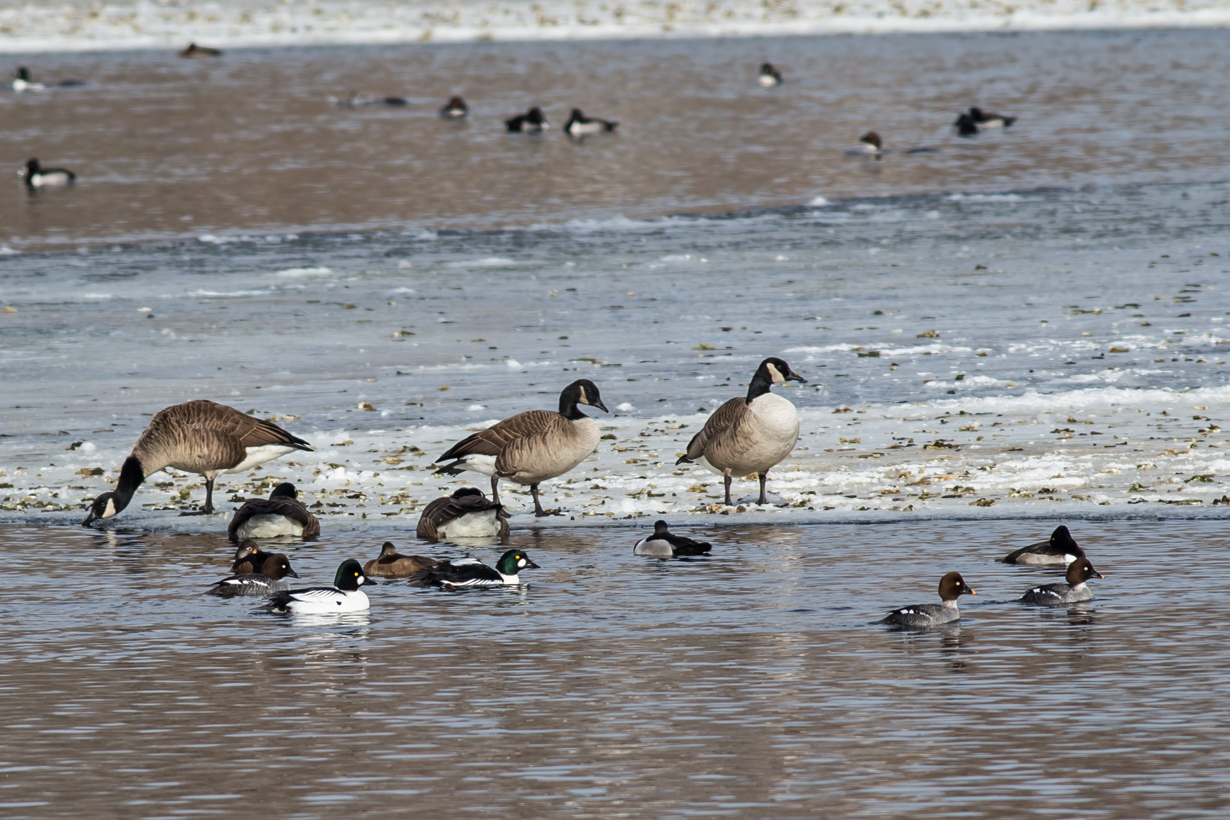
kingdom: Animalia
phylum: Chordata
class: Aves
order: Anseriformes
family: Anatidae
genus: Bucephala
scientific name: Bucephala clangula
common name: Common goldeneye
